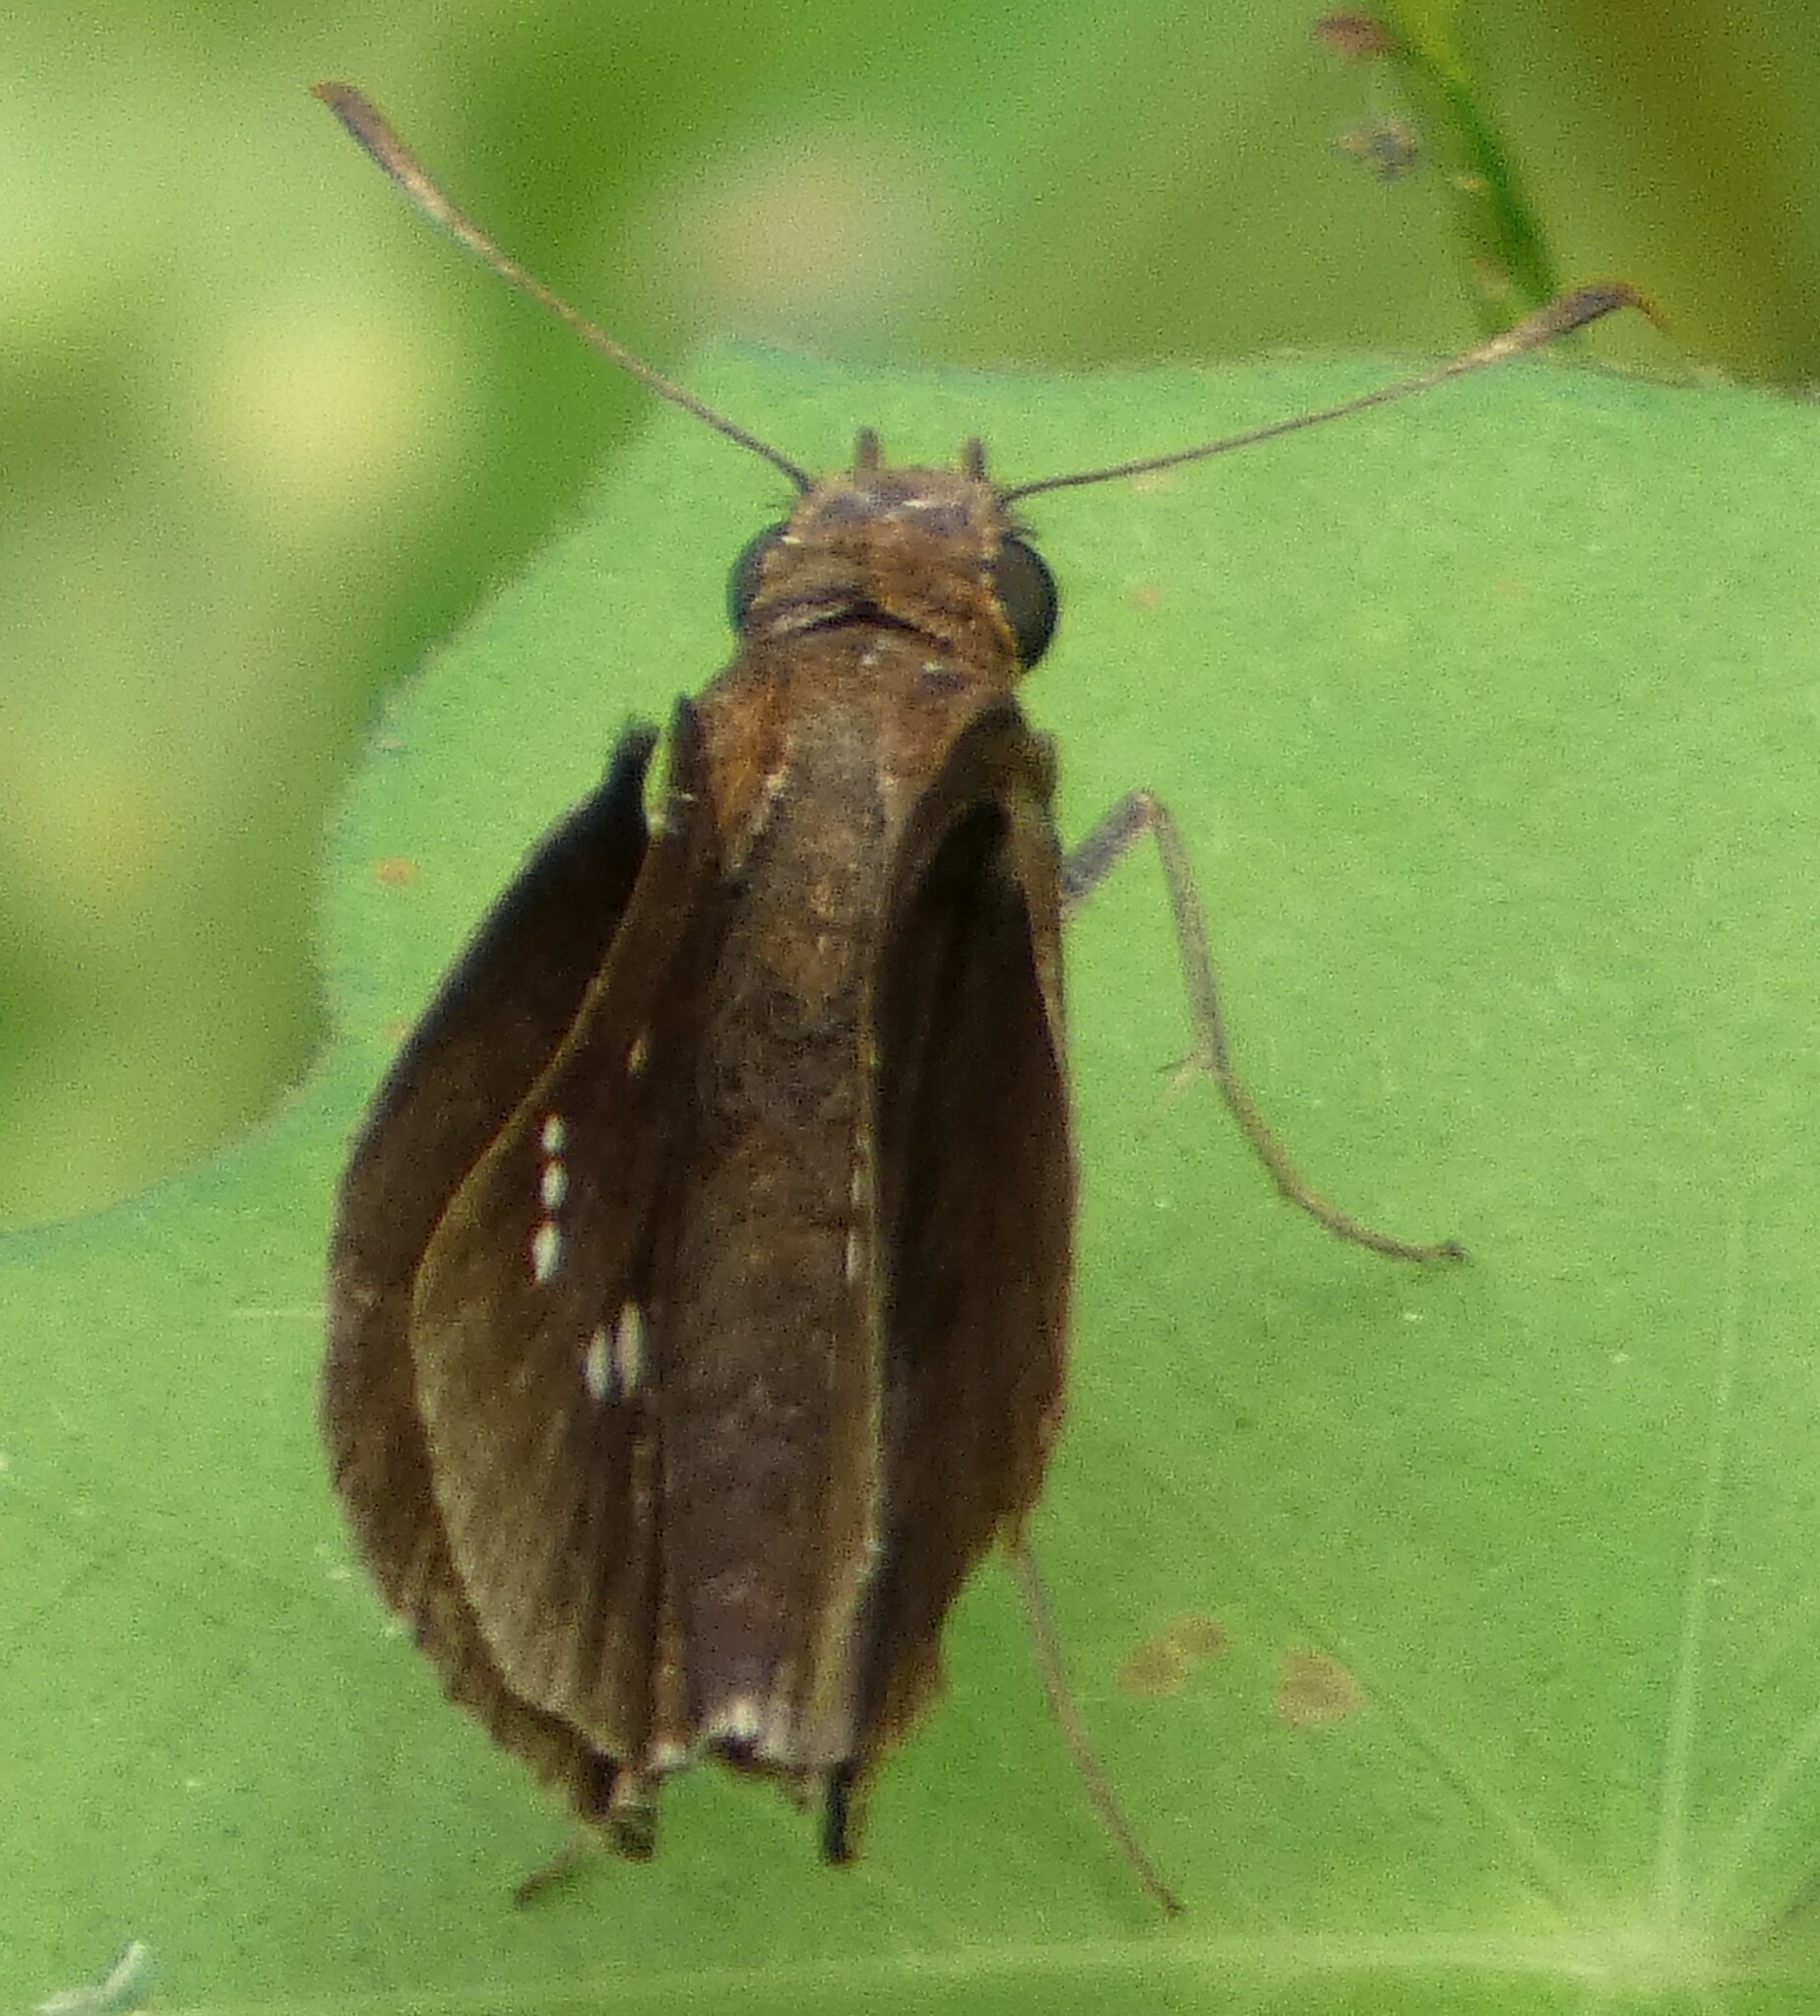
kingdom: Animalia
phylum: Arthropoda
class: Insecta
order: Lepidoptera
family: Hesperiidae
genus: Lerema
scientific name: Lerema accius
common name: Clouded skipper
